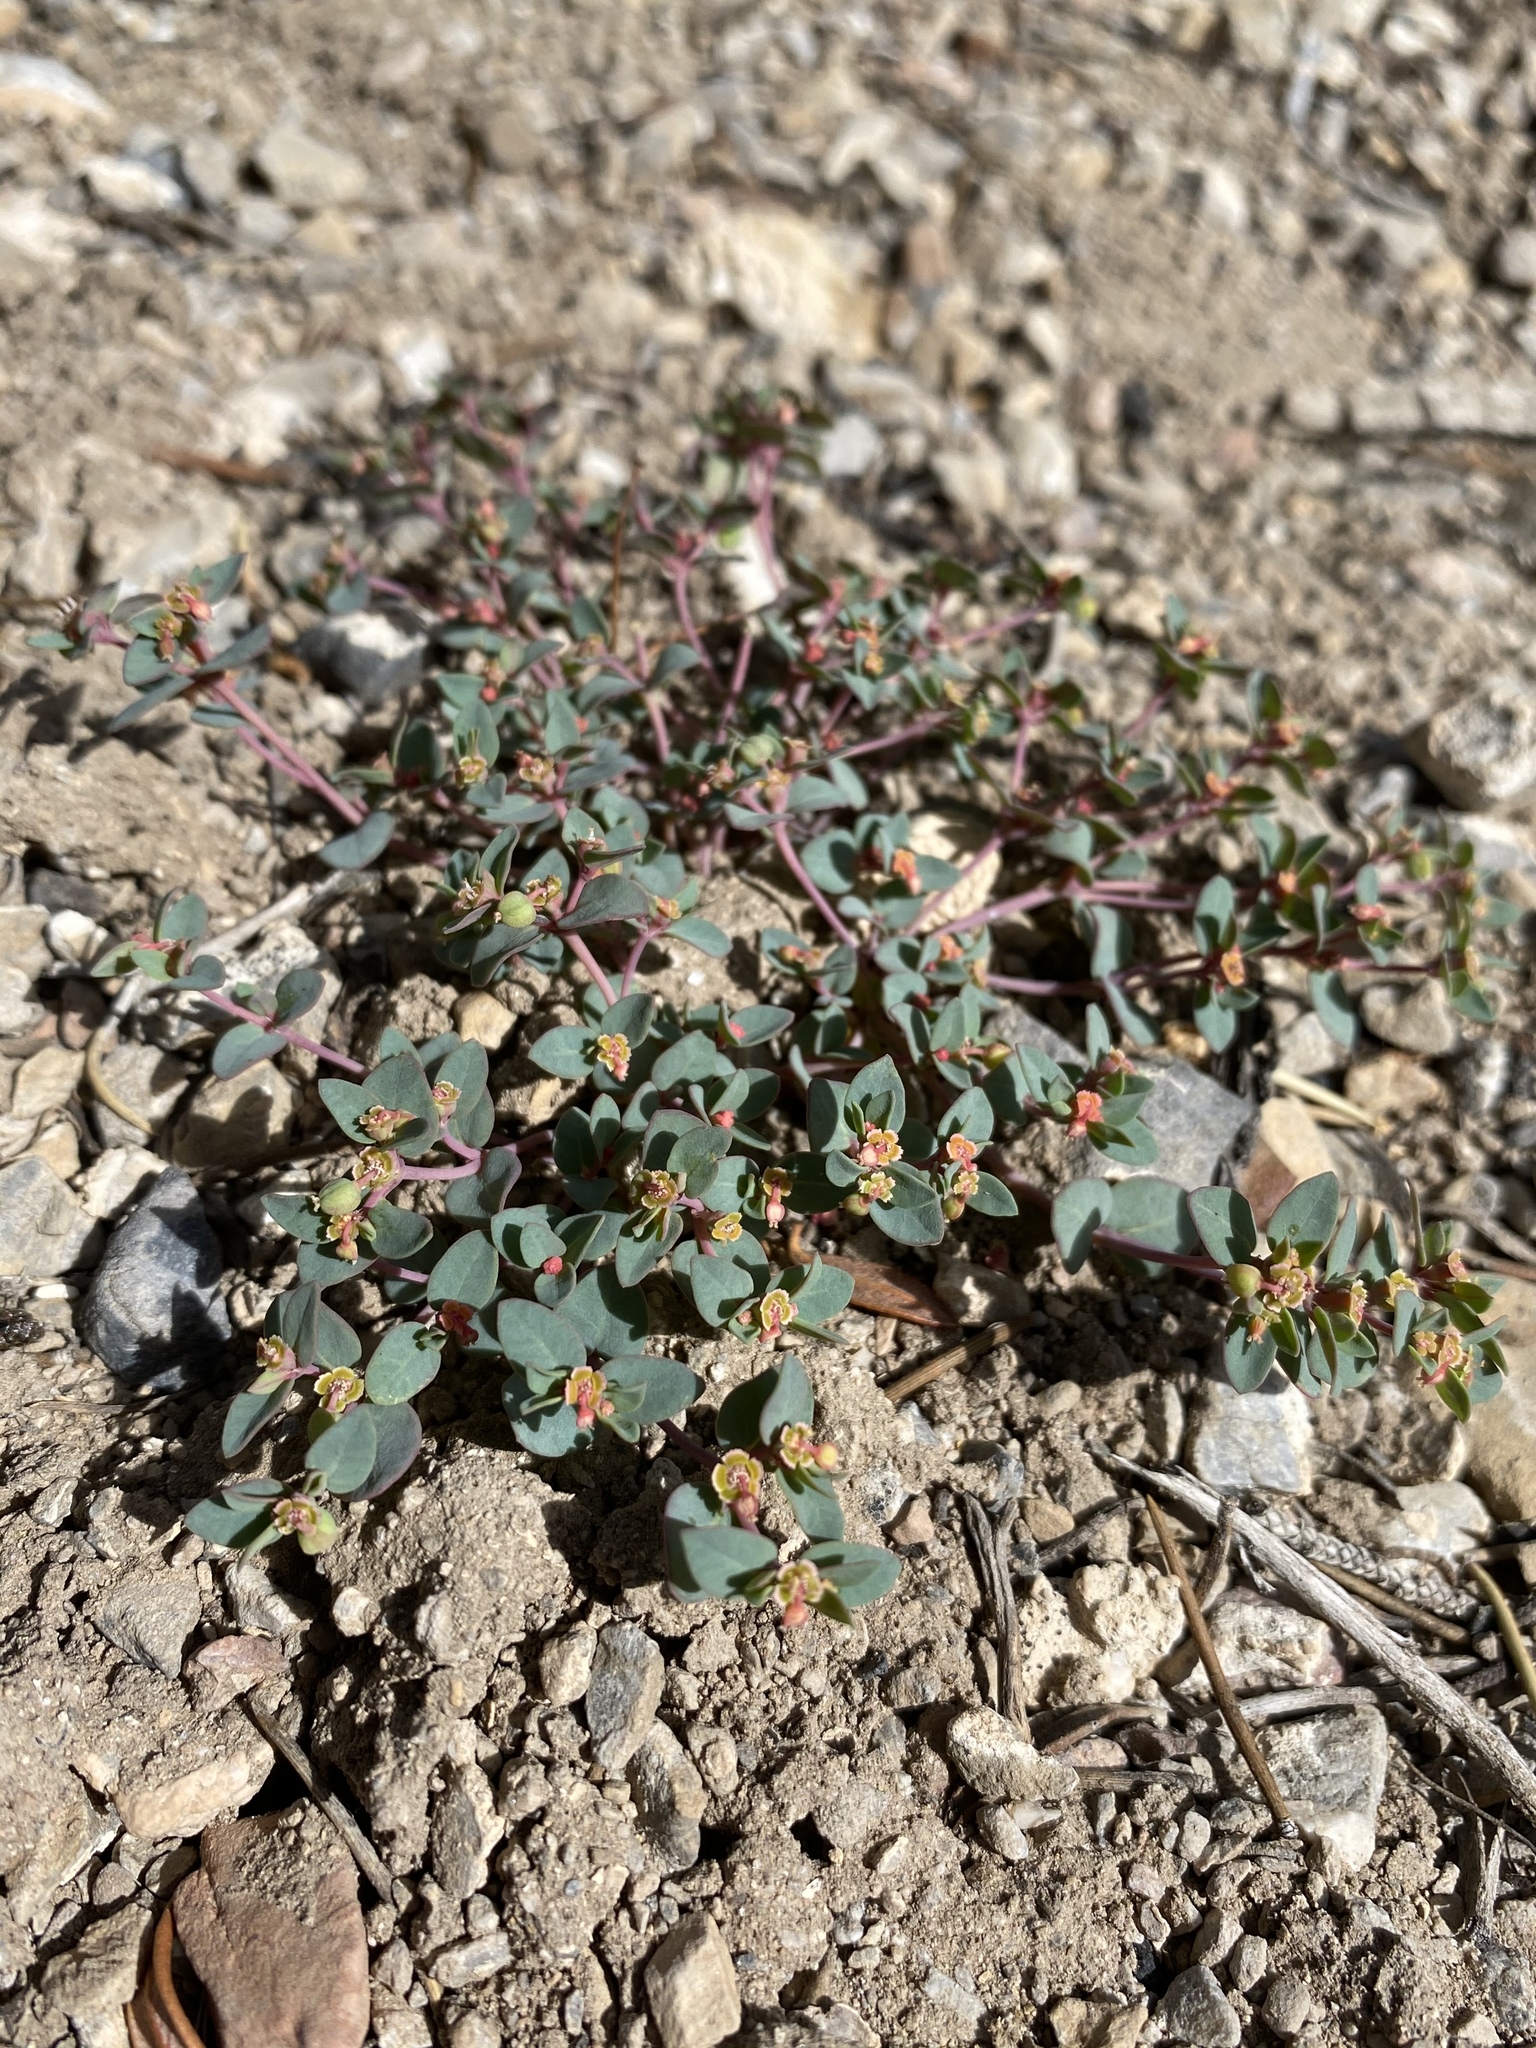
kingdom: Plantae
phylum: Tracheophyta
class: Magnoliopsida
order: Malpighiales
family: Euphorbiaceae
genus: Euphorbia
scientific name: Euphorbia fendleri
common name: Fendler's euphorbia
